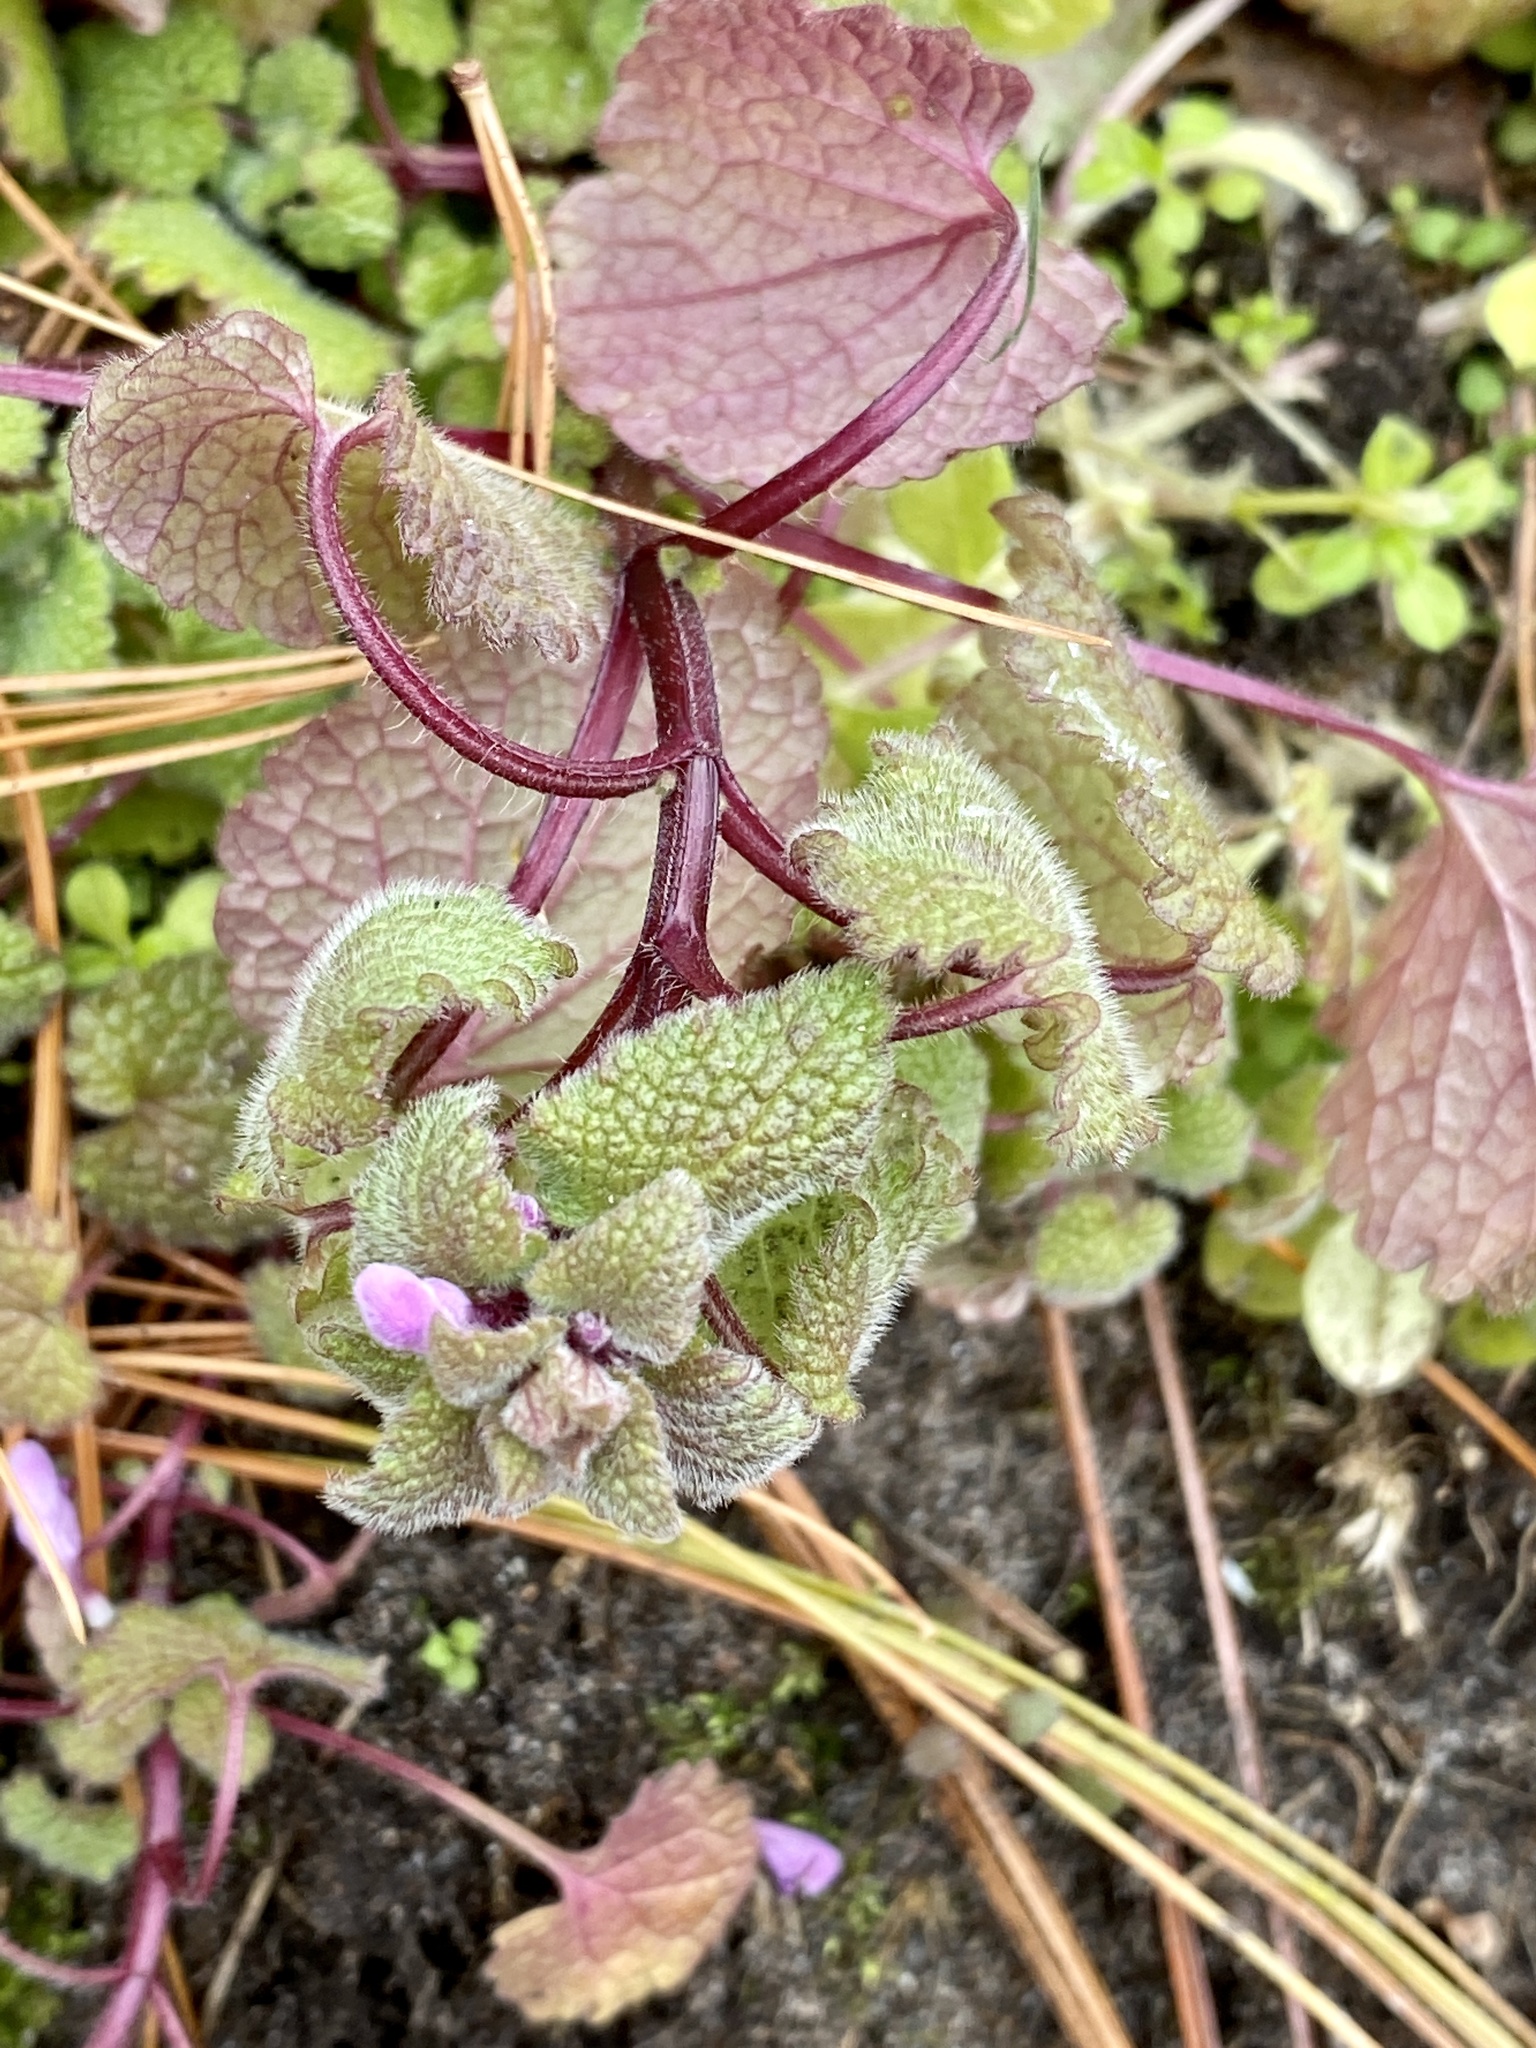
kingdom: Plantae
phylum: Tracheophyta
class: Magnoliopsida
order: Lamiales
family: Lamiaceae
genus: Lamium
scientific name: Lamium purpureum
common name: Red dead-nettle
